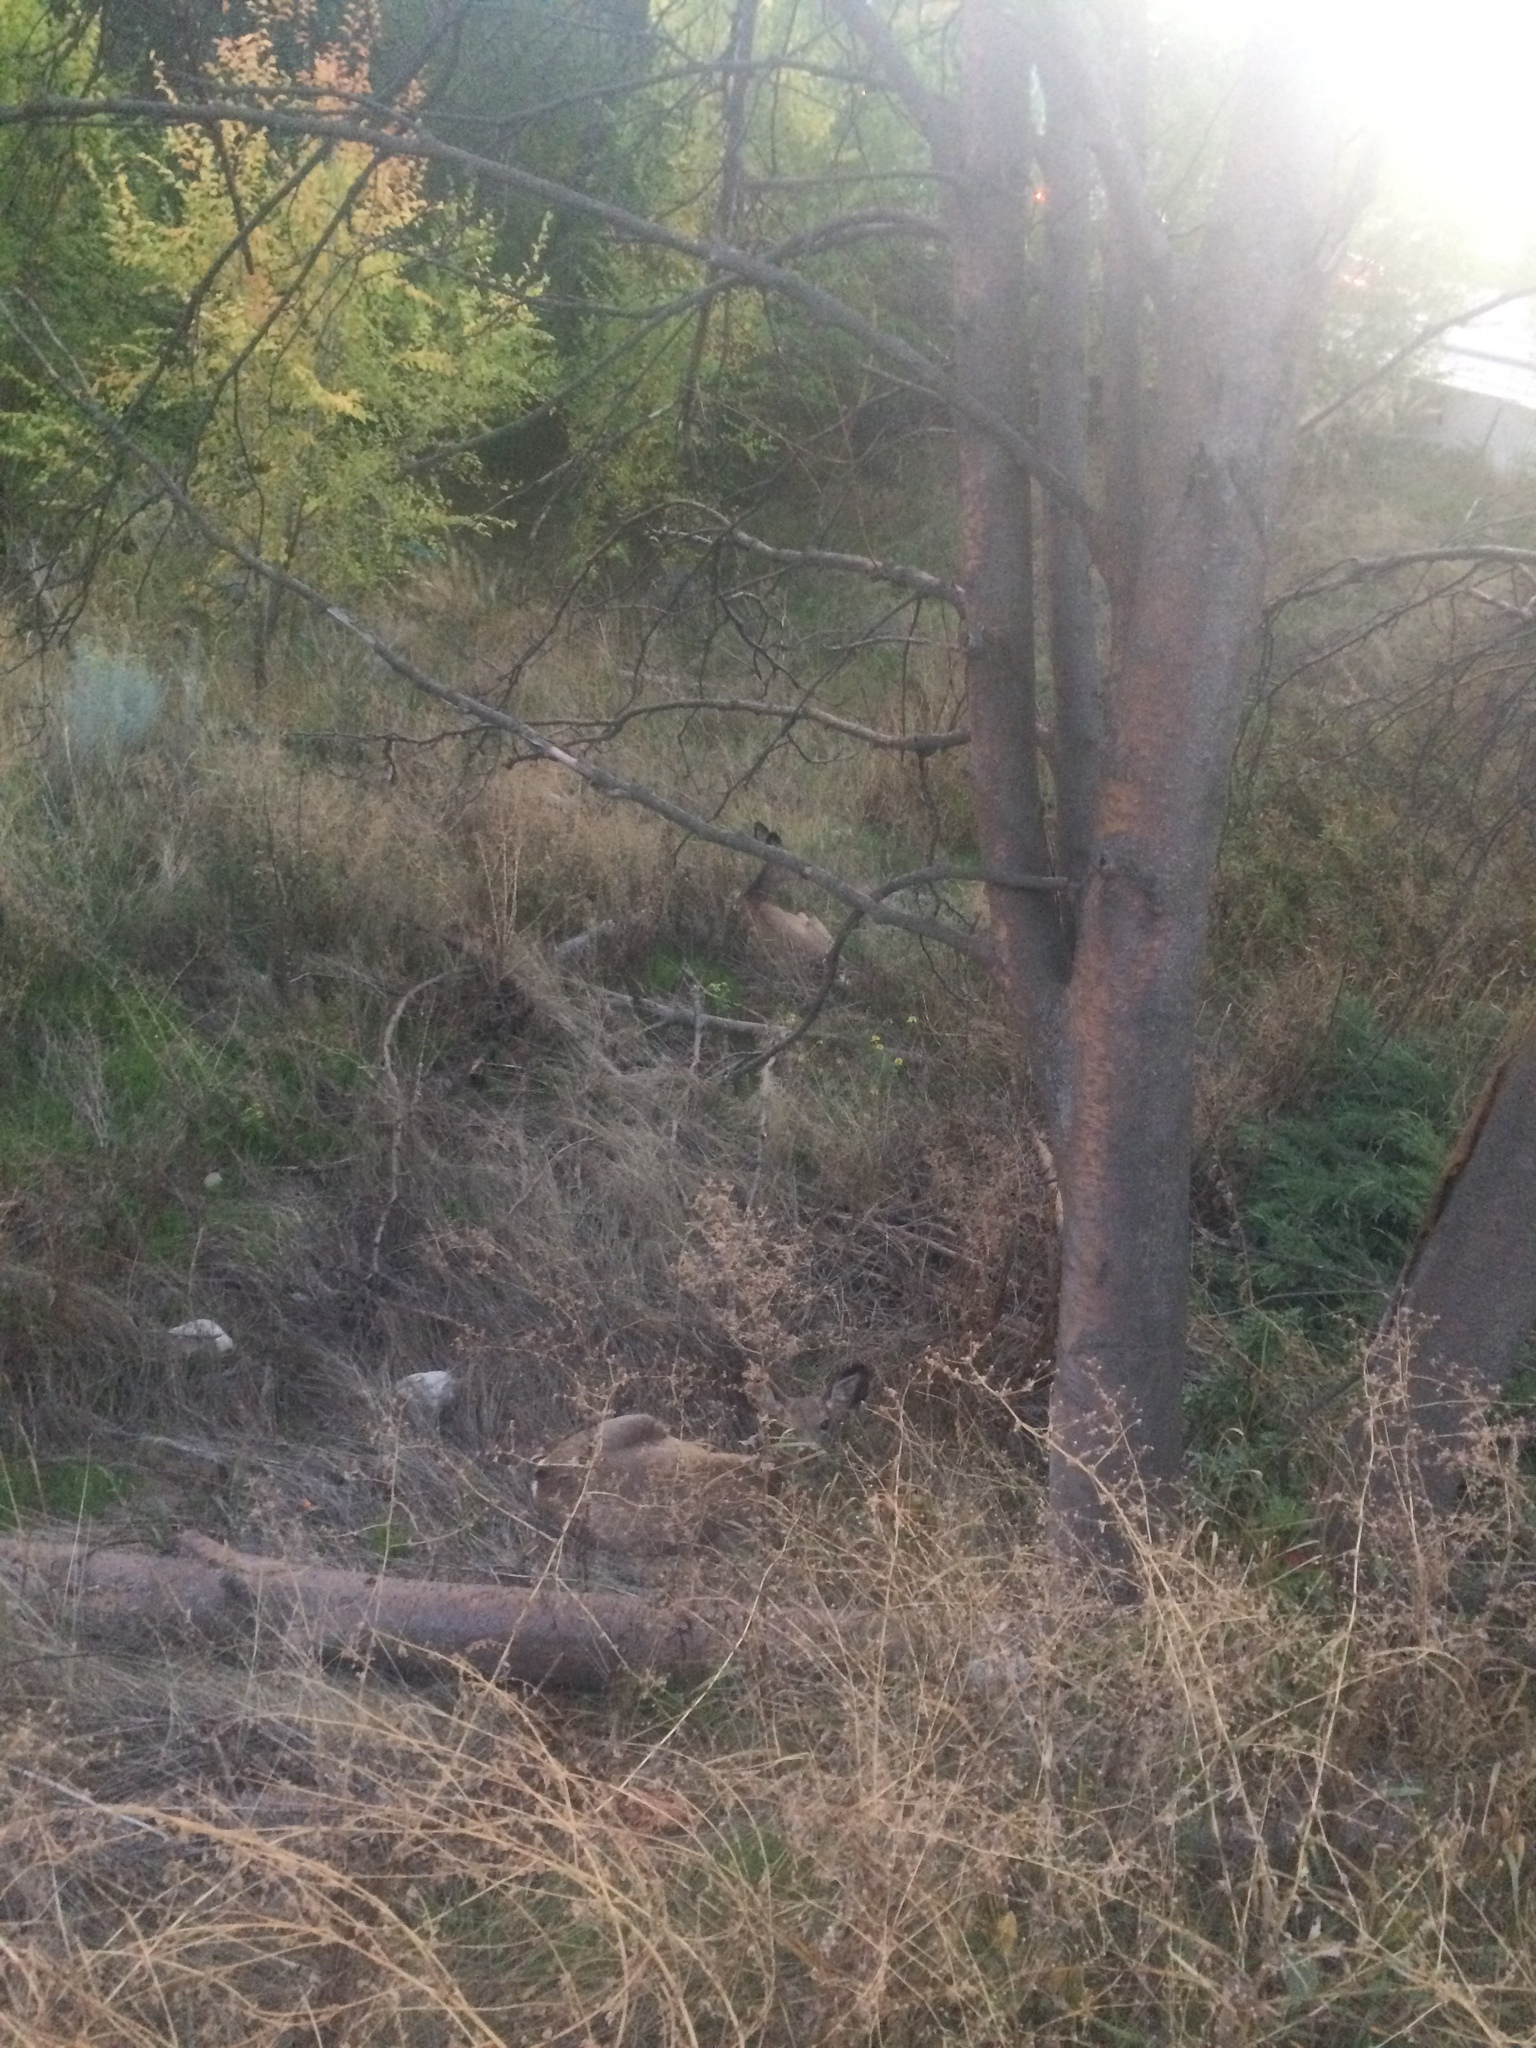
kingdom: Animalia
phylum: Chordata
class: Mammalia
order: Artiodactyla
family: Cervidae
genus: Odocoileus
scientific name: Odocoileus hemionus
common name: Mule deer
